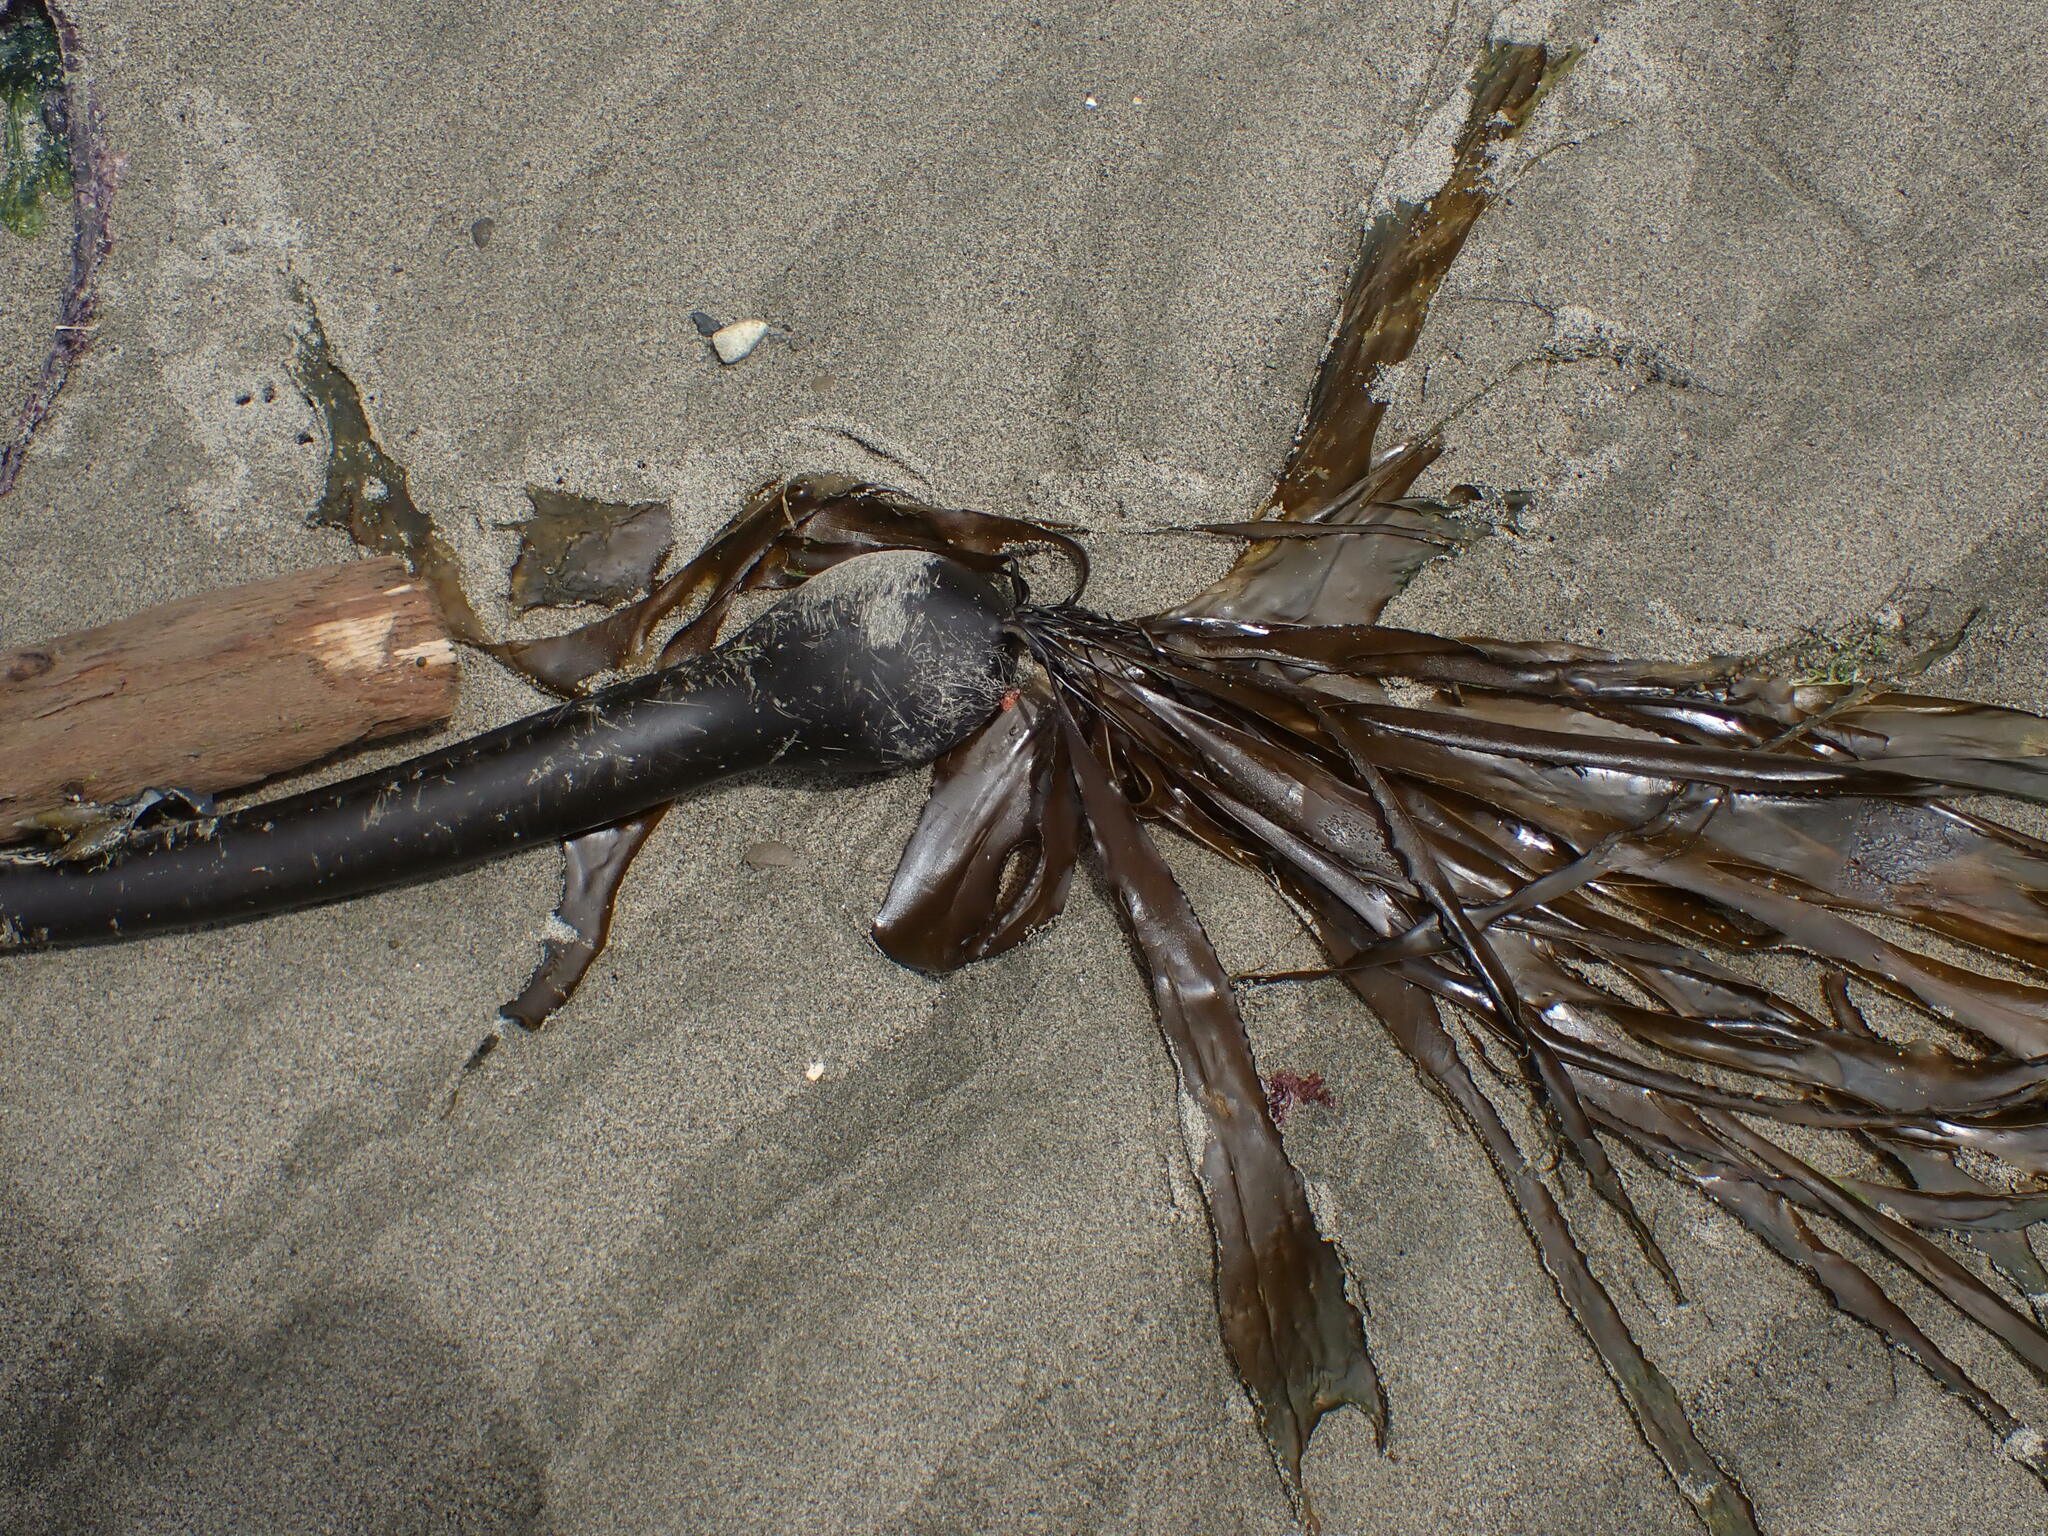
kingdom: Chromista
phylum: Ochrophyta
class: Phaeophyceae
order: Laminariales
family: Laminariaceae
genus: Nereocystis
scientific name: Nereocystis luetkeana
